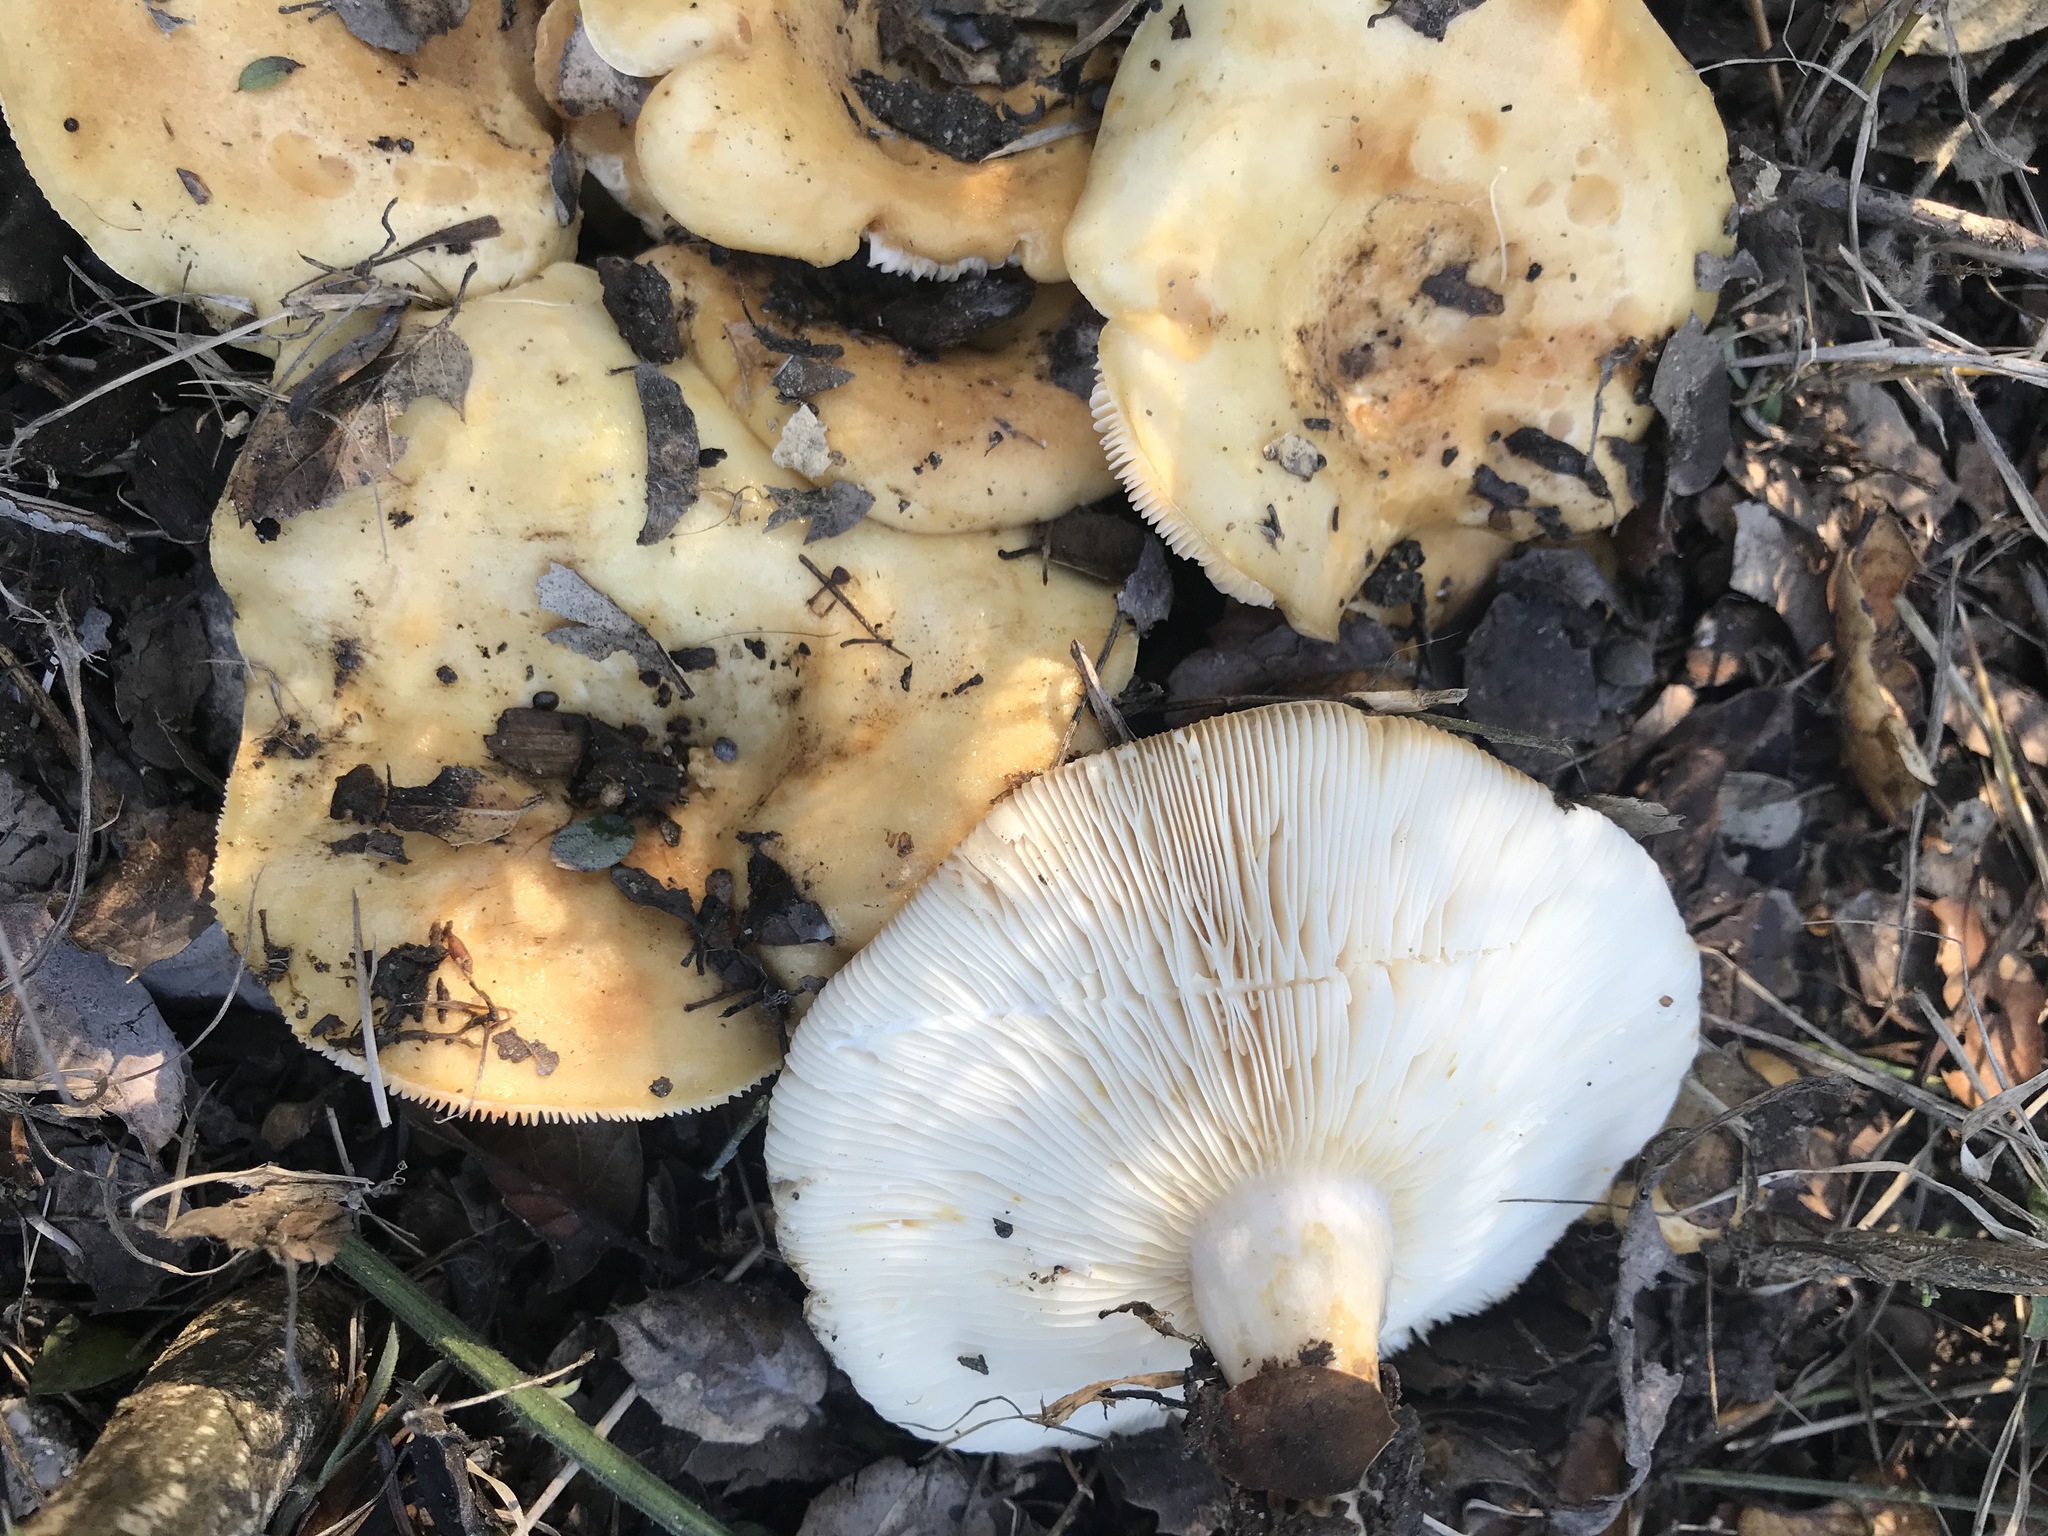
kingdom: Fungi
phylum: Basidiomycota
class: Agaricomycetes
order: Russulales
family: Russulaceae
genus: Lactarius
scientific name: Lactarius alnicola
